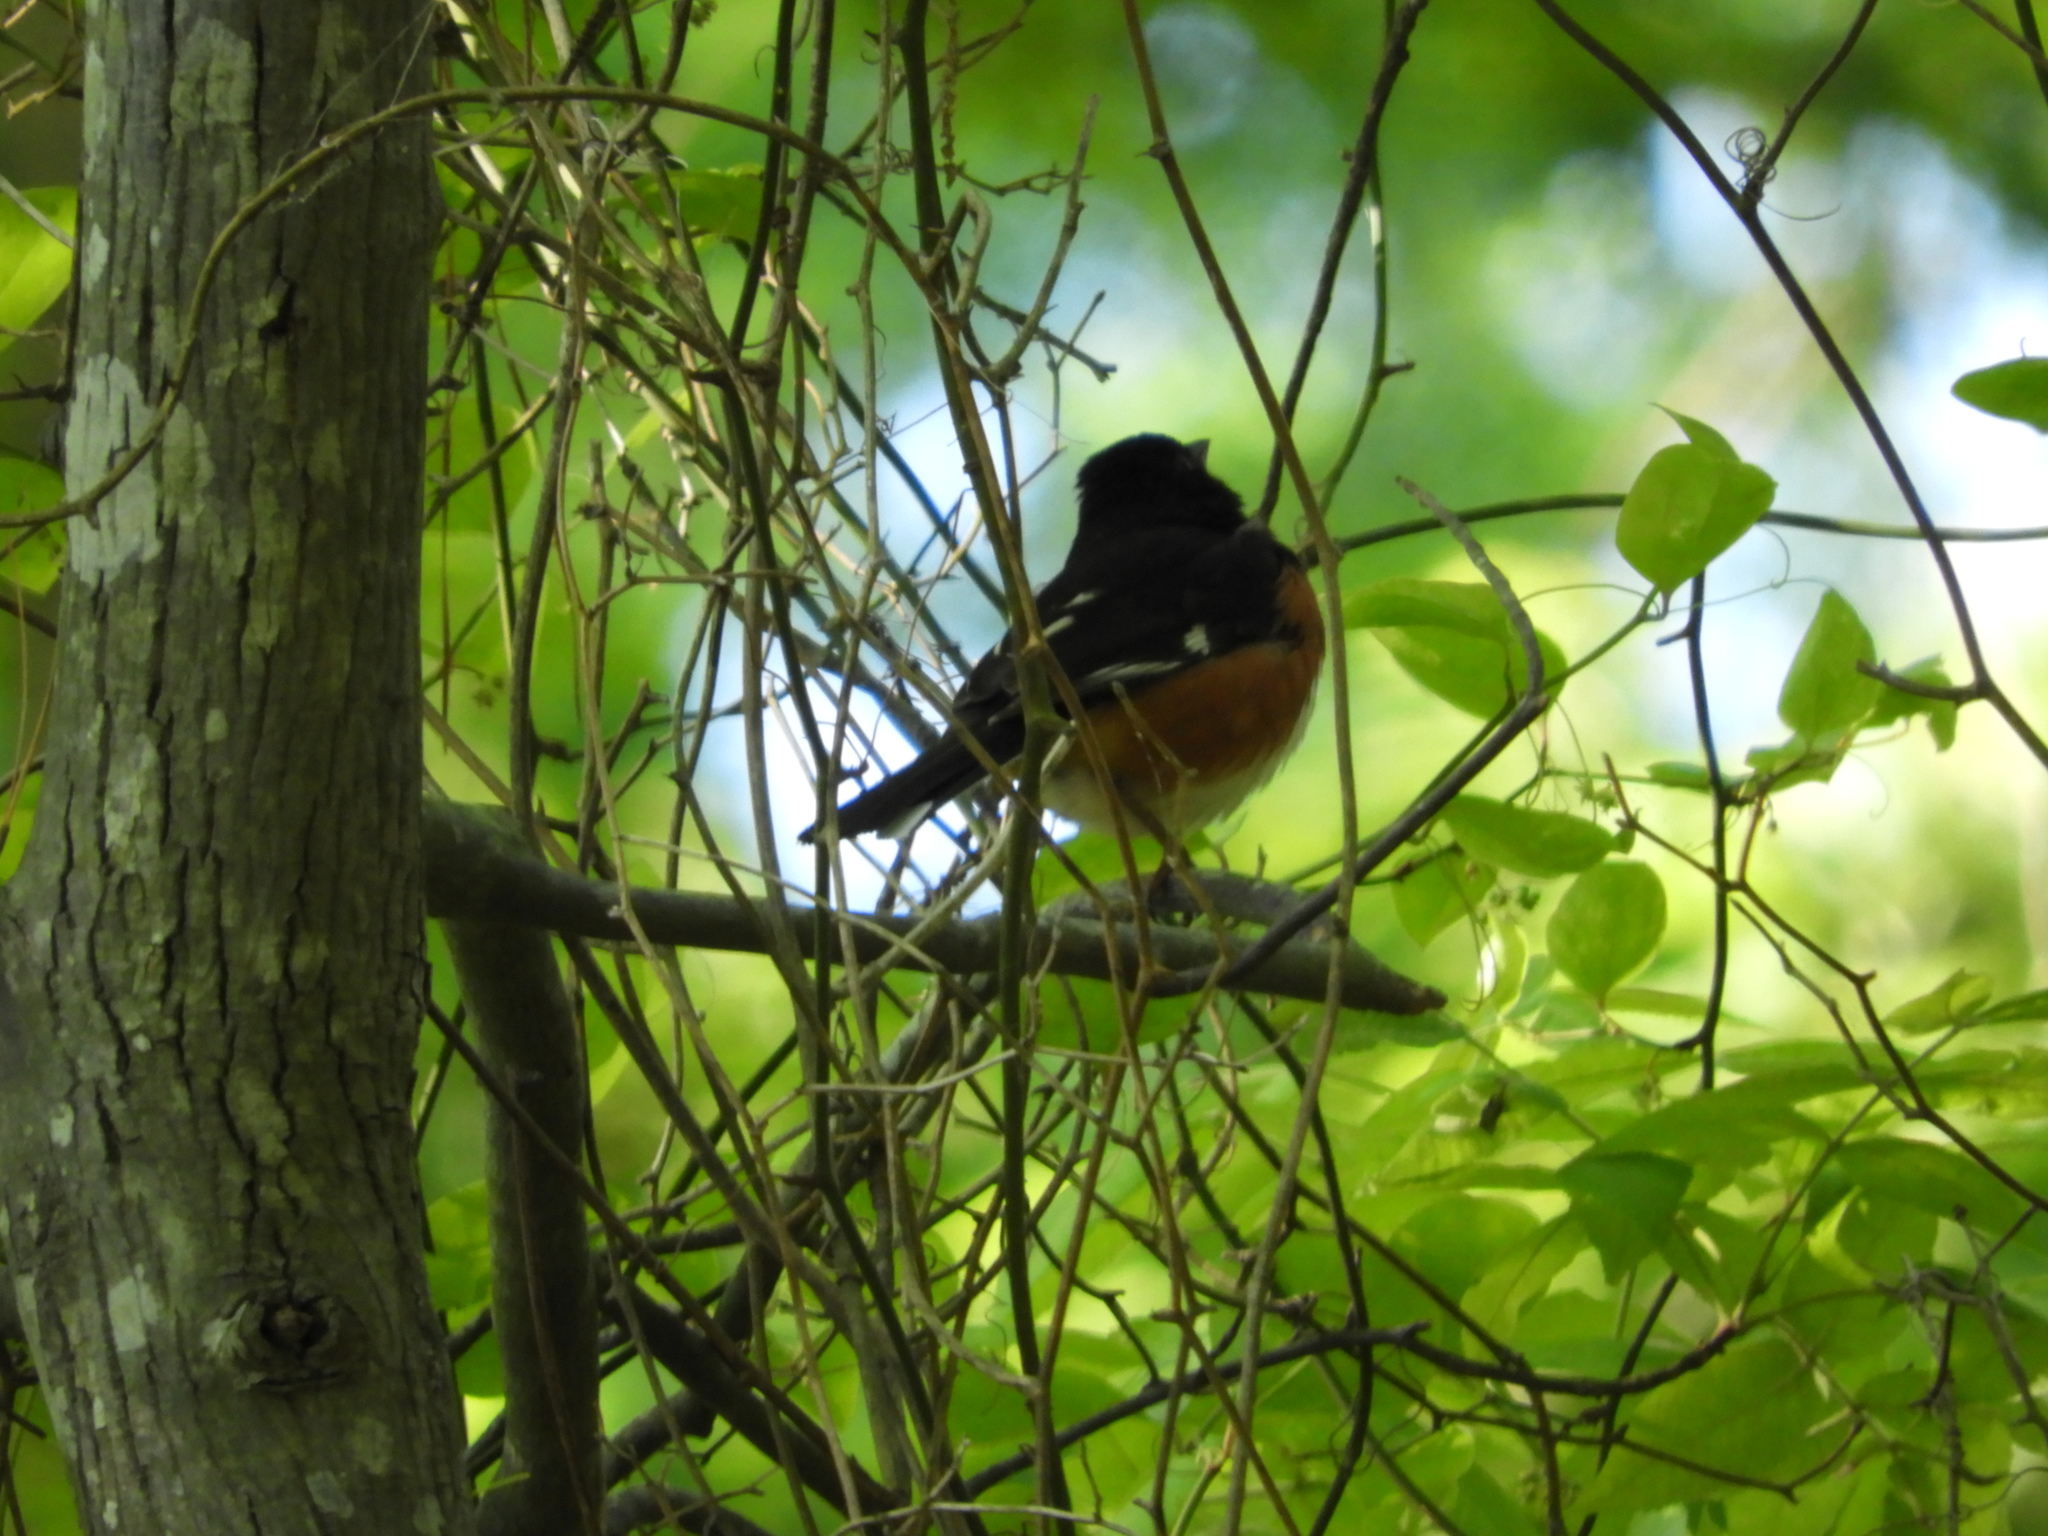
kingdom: Animalia
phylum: Chordata
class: Aves
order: Passeriformes
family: Passerellidae
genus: Pipilo
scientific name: Pipilo erythrophthalmus
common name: Eastern towhee
